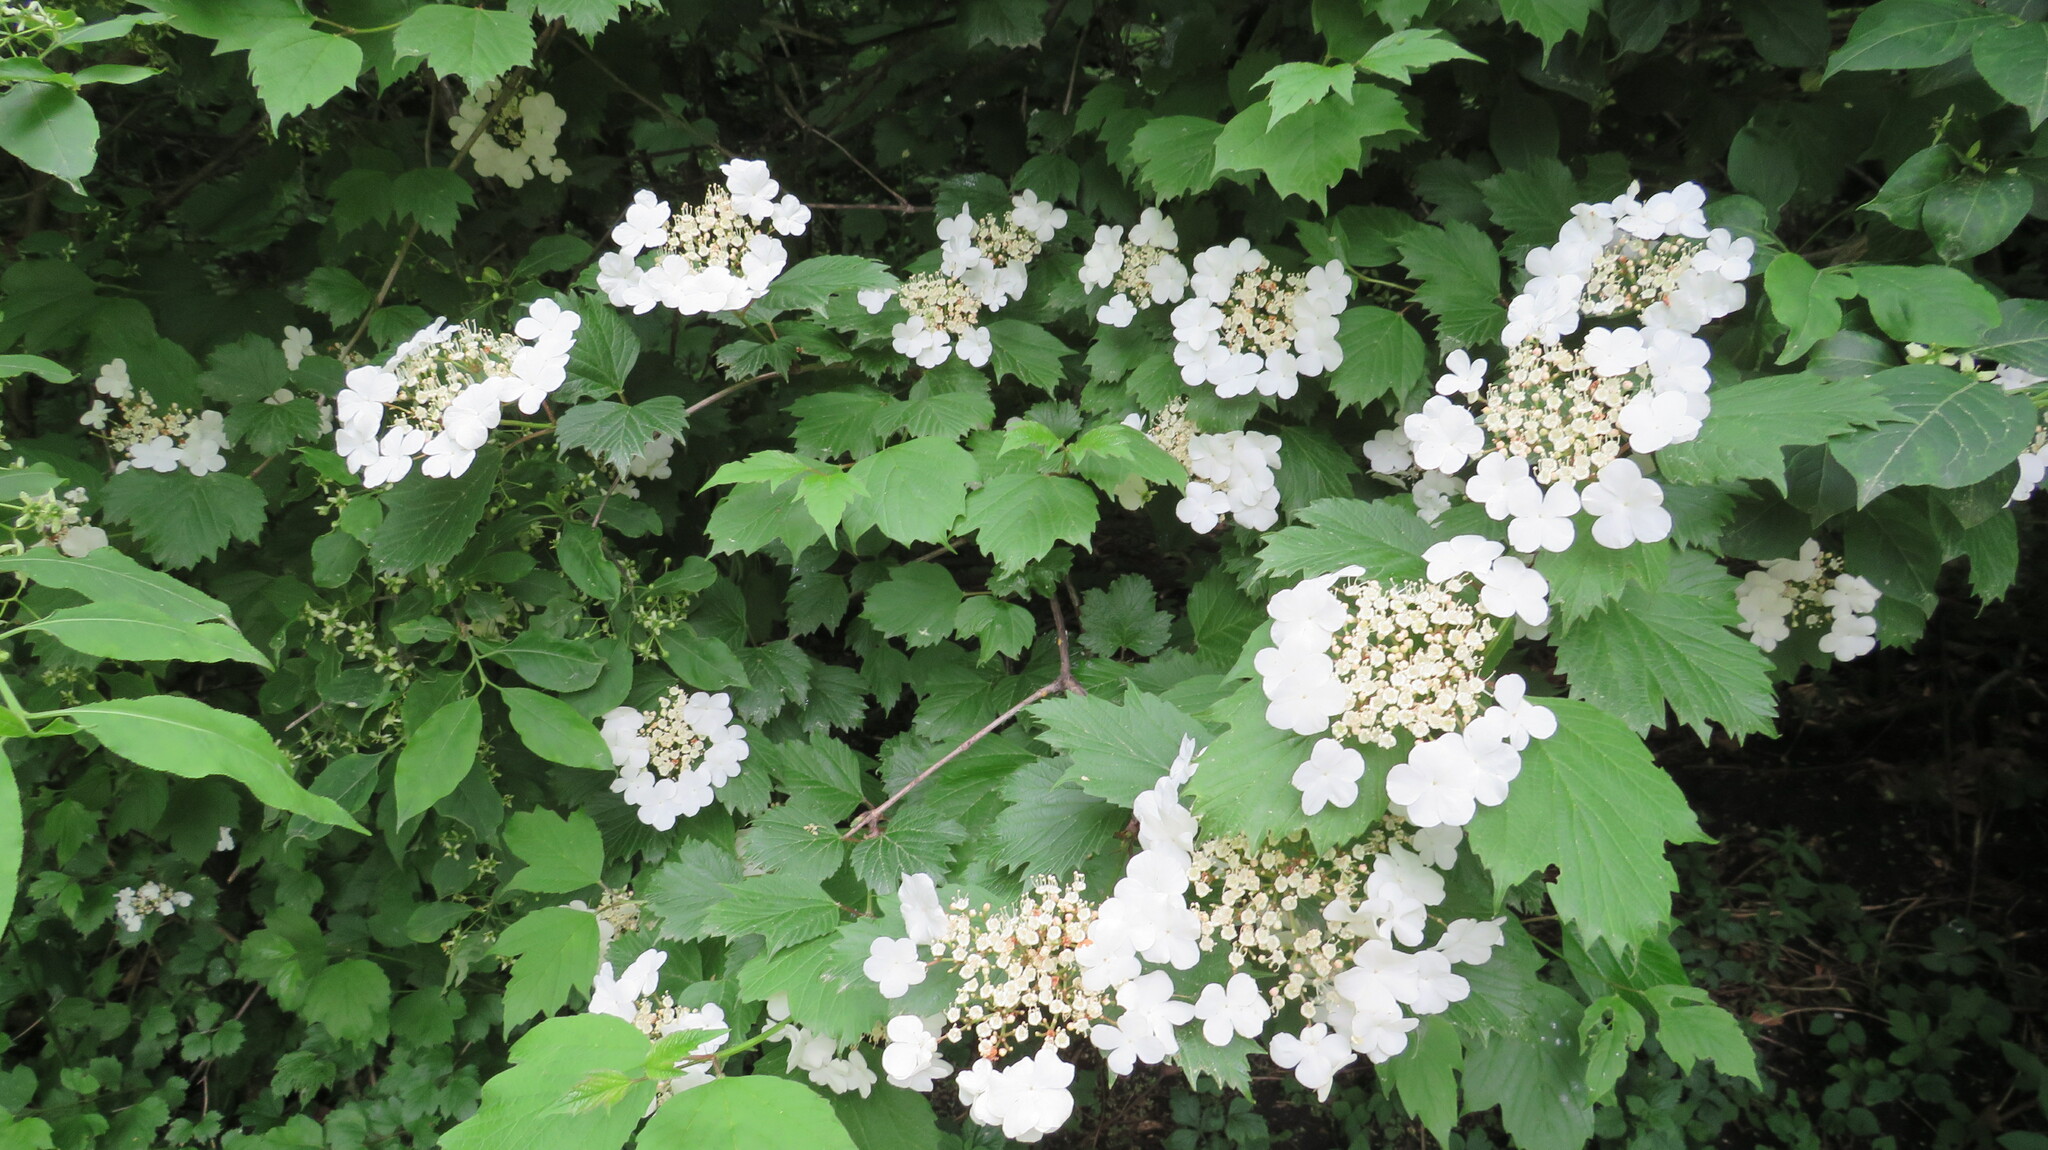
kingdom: Plantae
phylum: Tracheophyta
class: Magnoliopsida
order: Dipsacales
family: Viburnaceae
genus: Viburnum
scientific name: Viburnum opulus
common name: Guelder-rose
